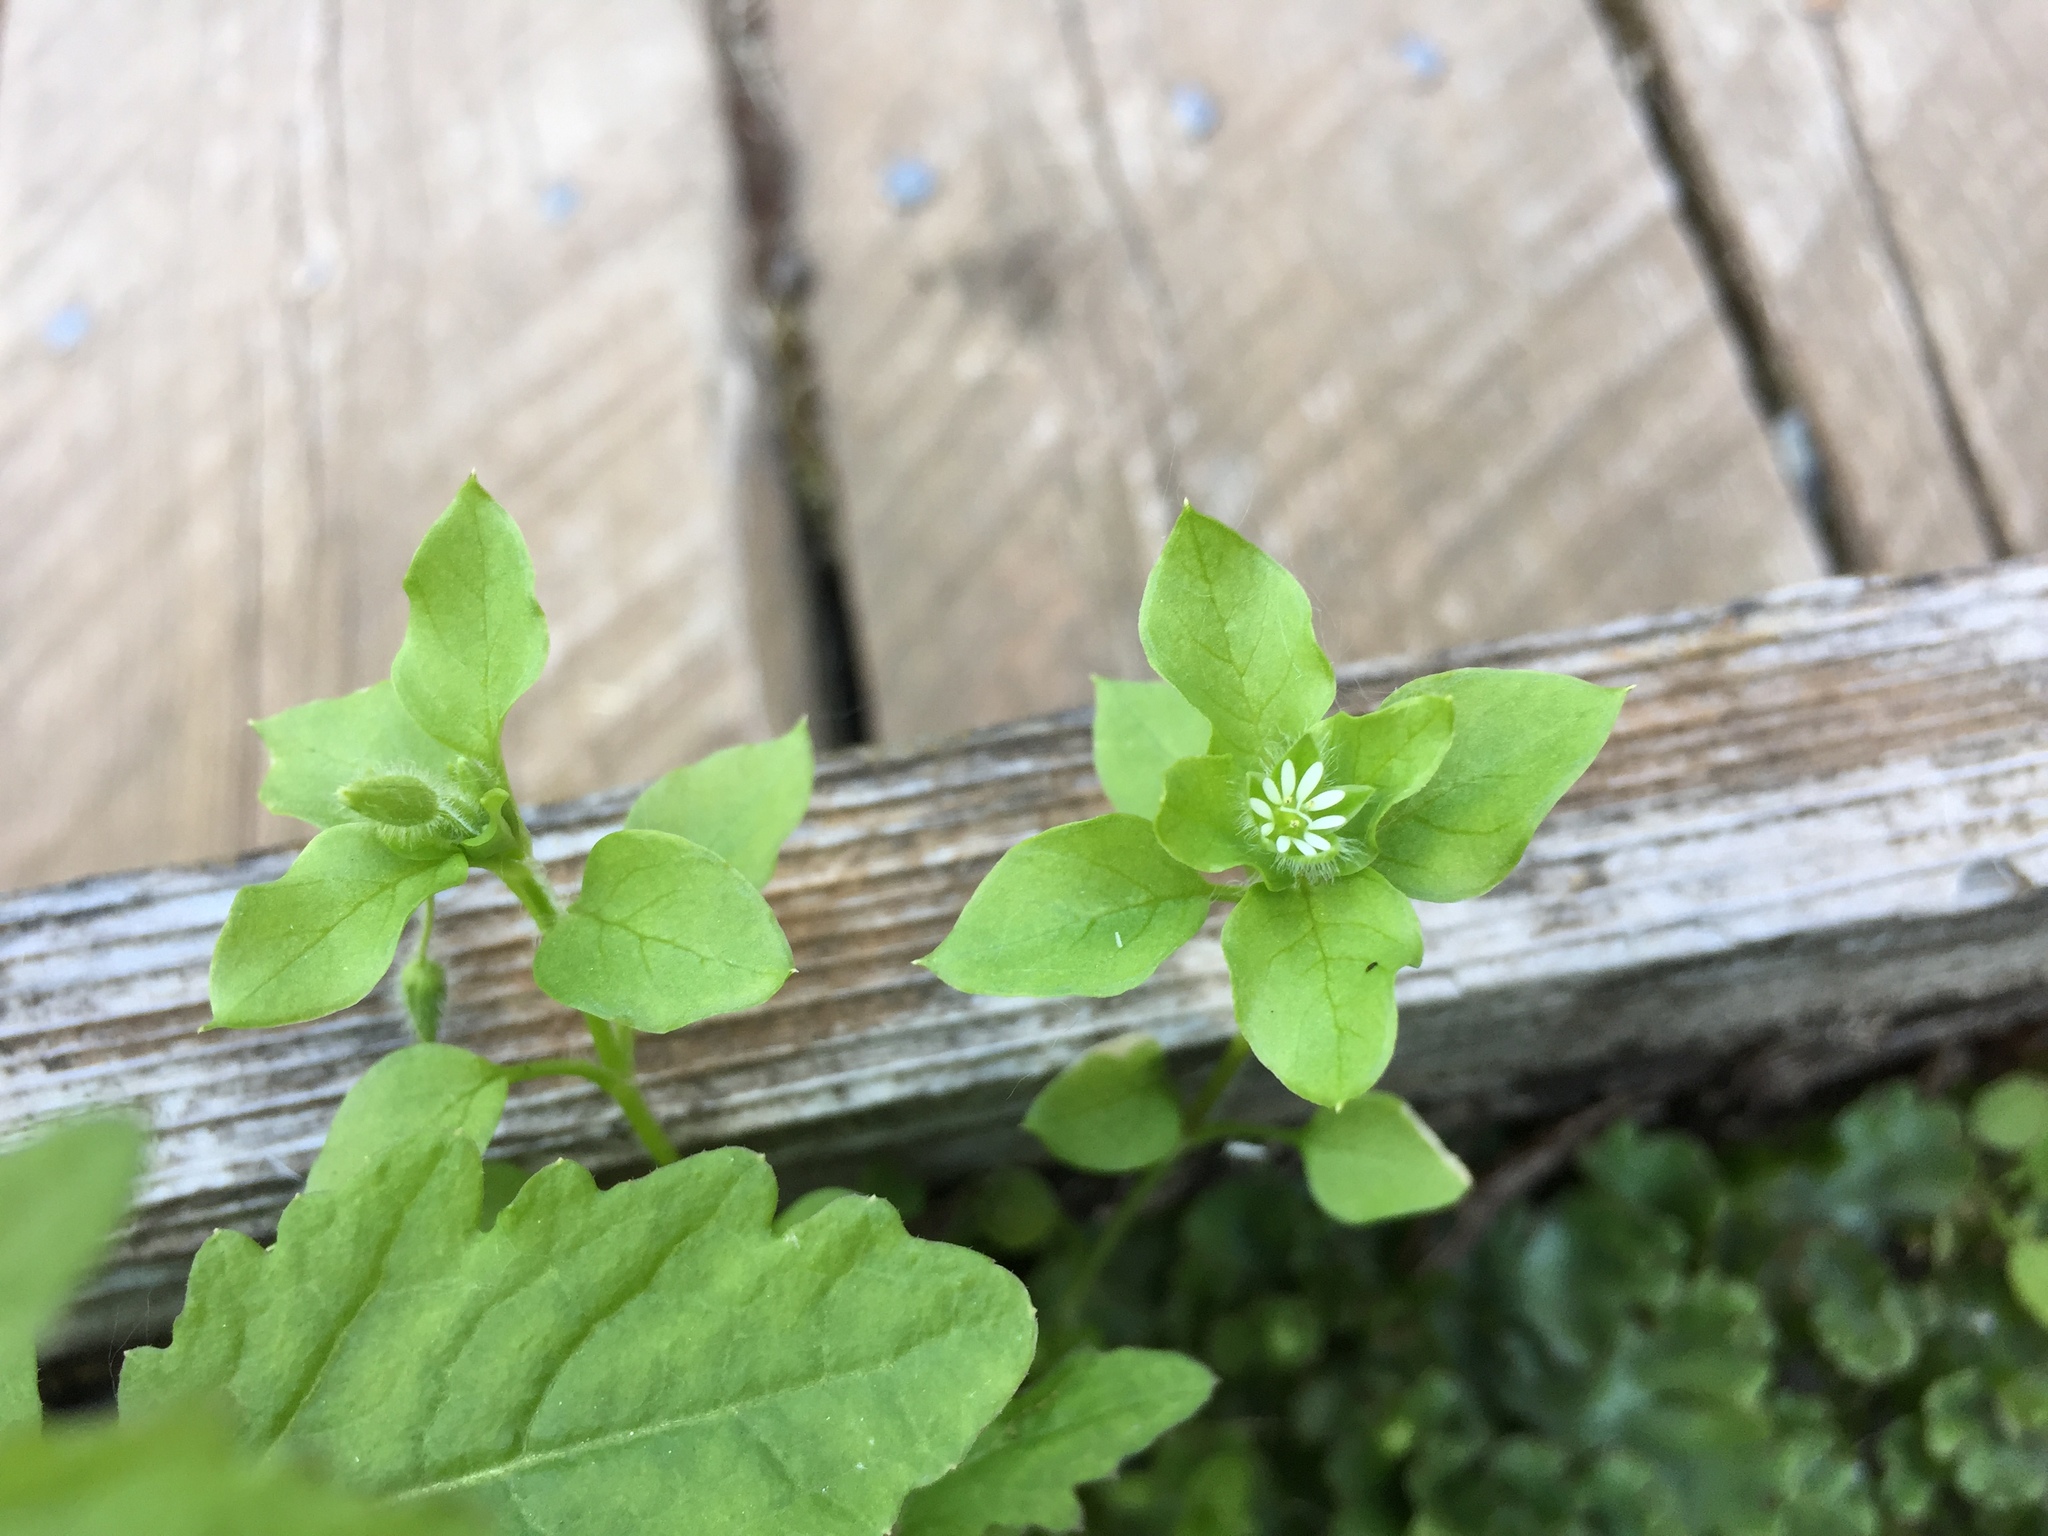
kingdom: Plantae
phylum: Tracheophyta
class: Magnoliopsida
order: Caryophyllales
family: Caryophyllaceae
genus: Stellaria
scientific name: Stellaria media
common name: Common chickweed
